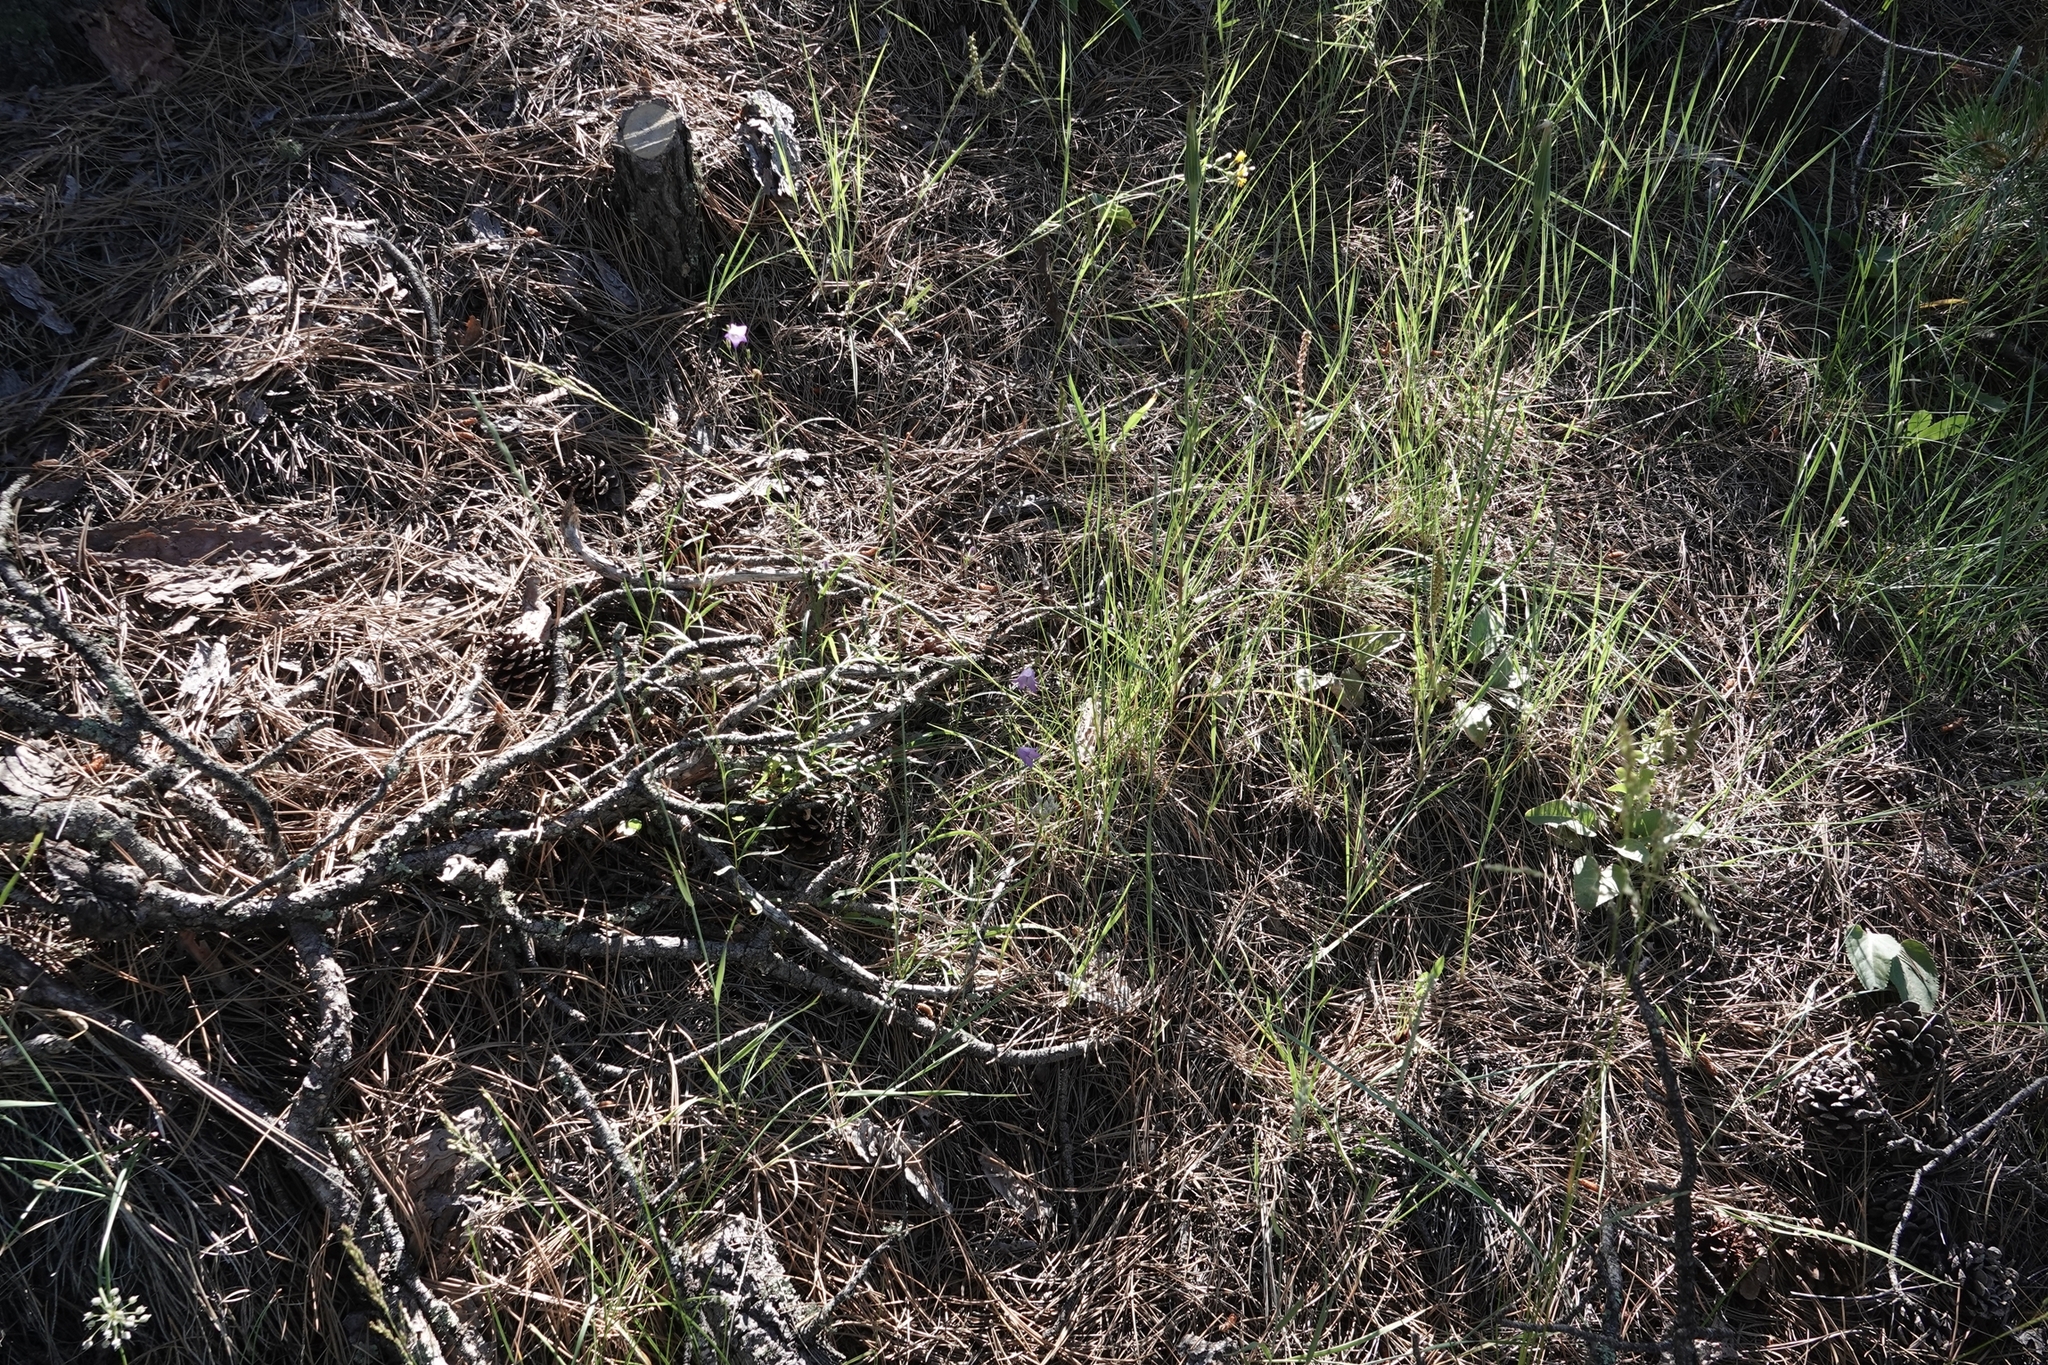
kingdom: Plantae
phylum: Tracheophyta
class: Magnoliopsida
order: Asterales
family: Campanulaceae
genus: Campanula
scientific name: Campanula petiolata
